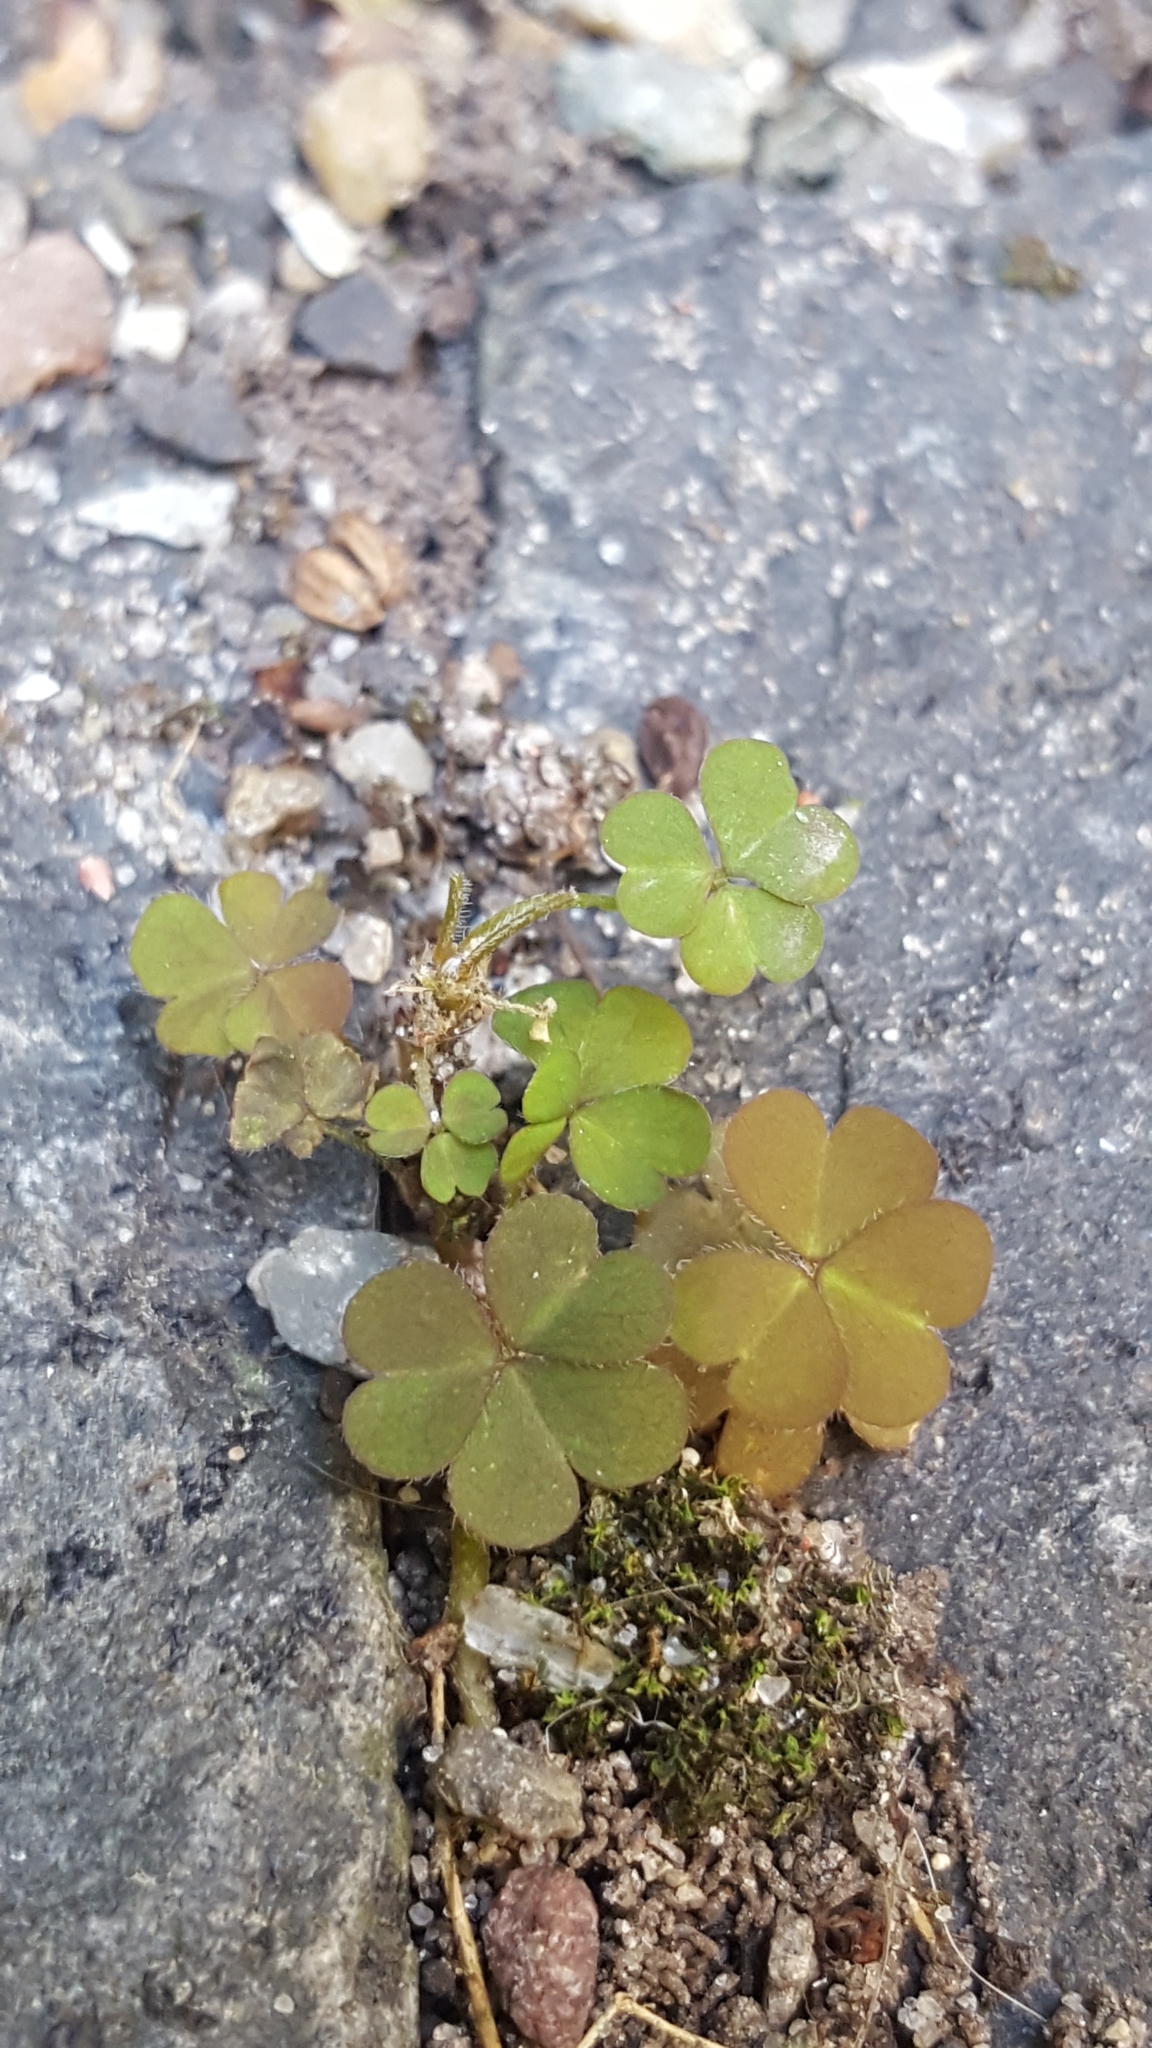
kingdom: Plantae
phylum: Tracheophyta
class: Magnoliopsida
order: Oxalidales
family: Oxalidaceae
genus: Oxalis
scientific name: Oxalis corniculata
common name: Procumbent yellow-sorrel
